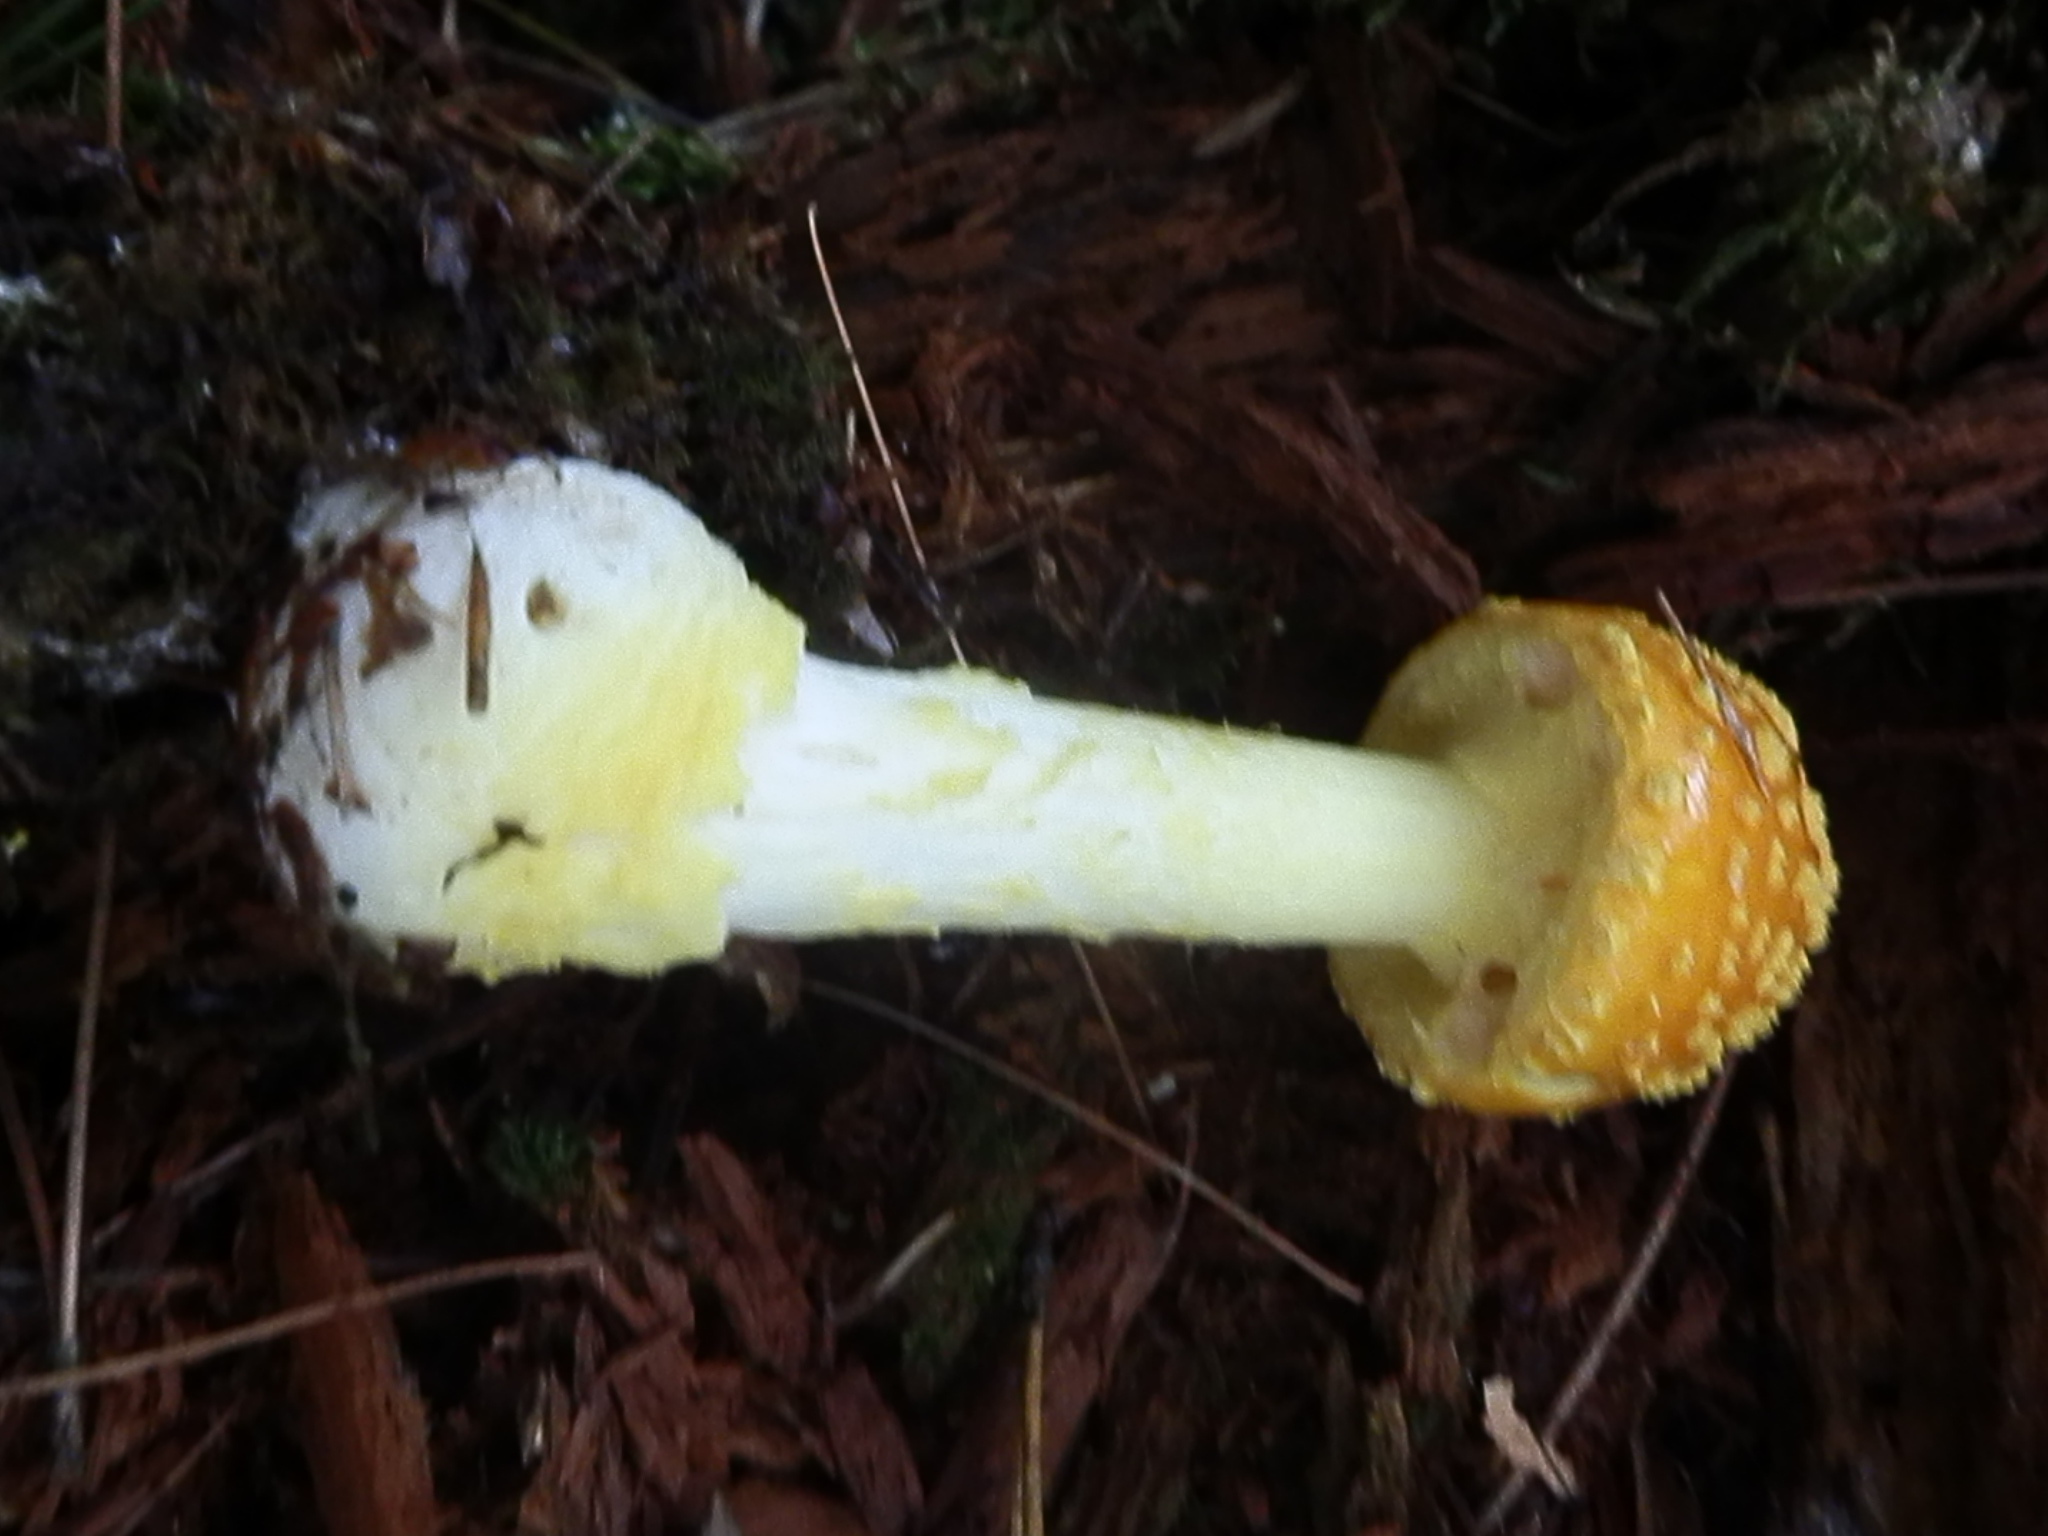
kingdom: Fungi
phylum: Basidiomycota
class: Agaricomycetes
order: Agaricales
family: Amanitaceae
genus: Amanita
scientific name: Amanita frostiana
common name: Frost's amanita
